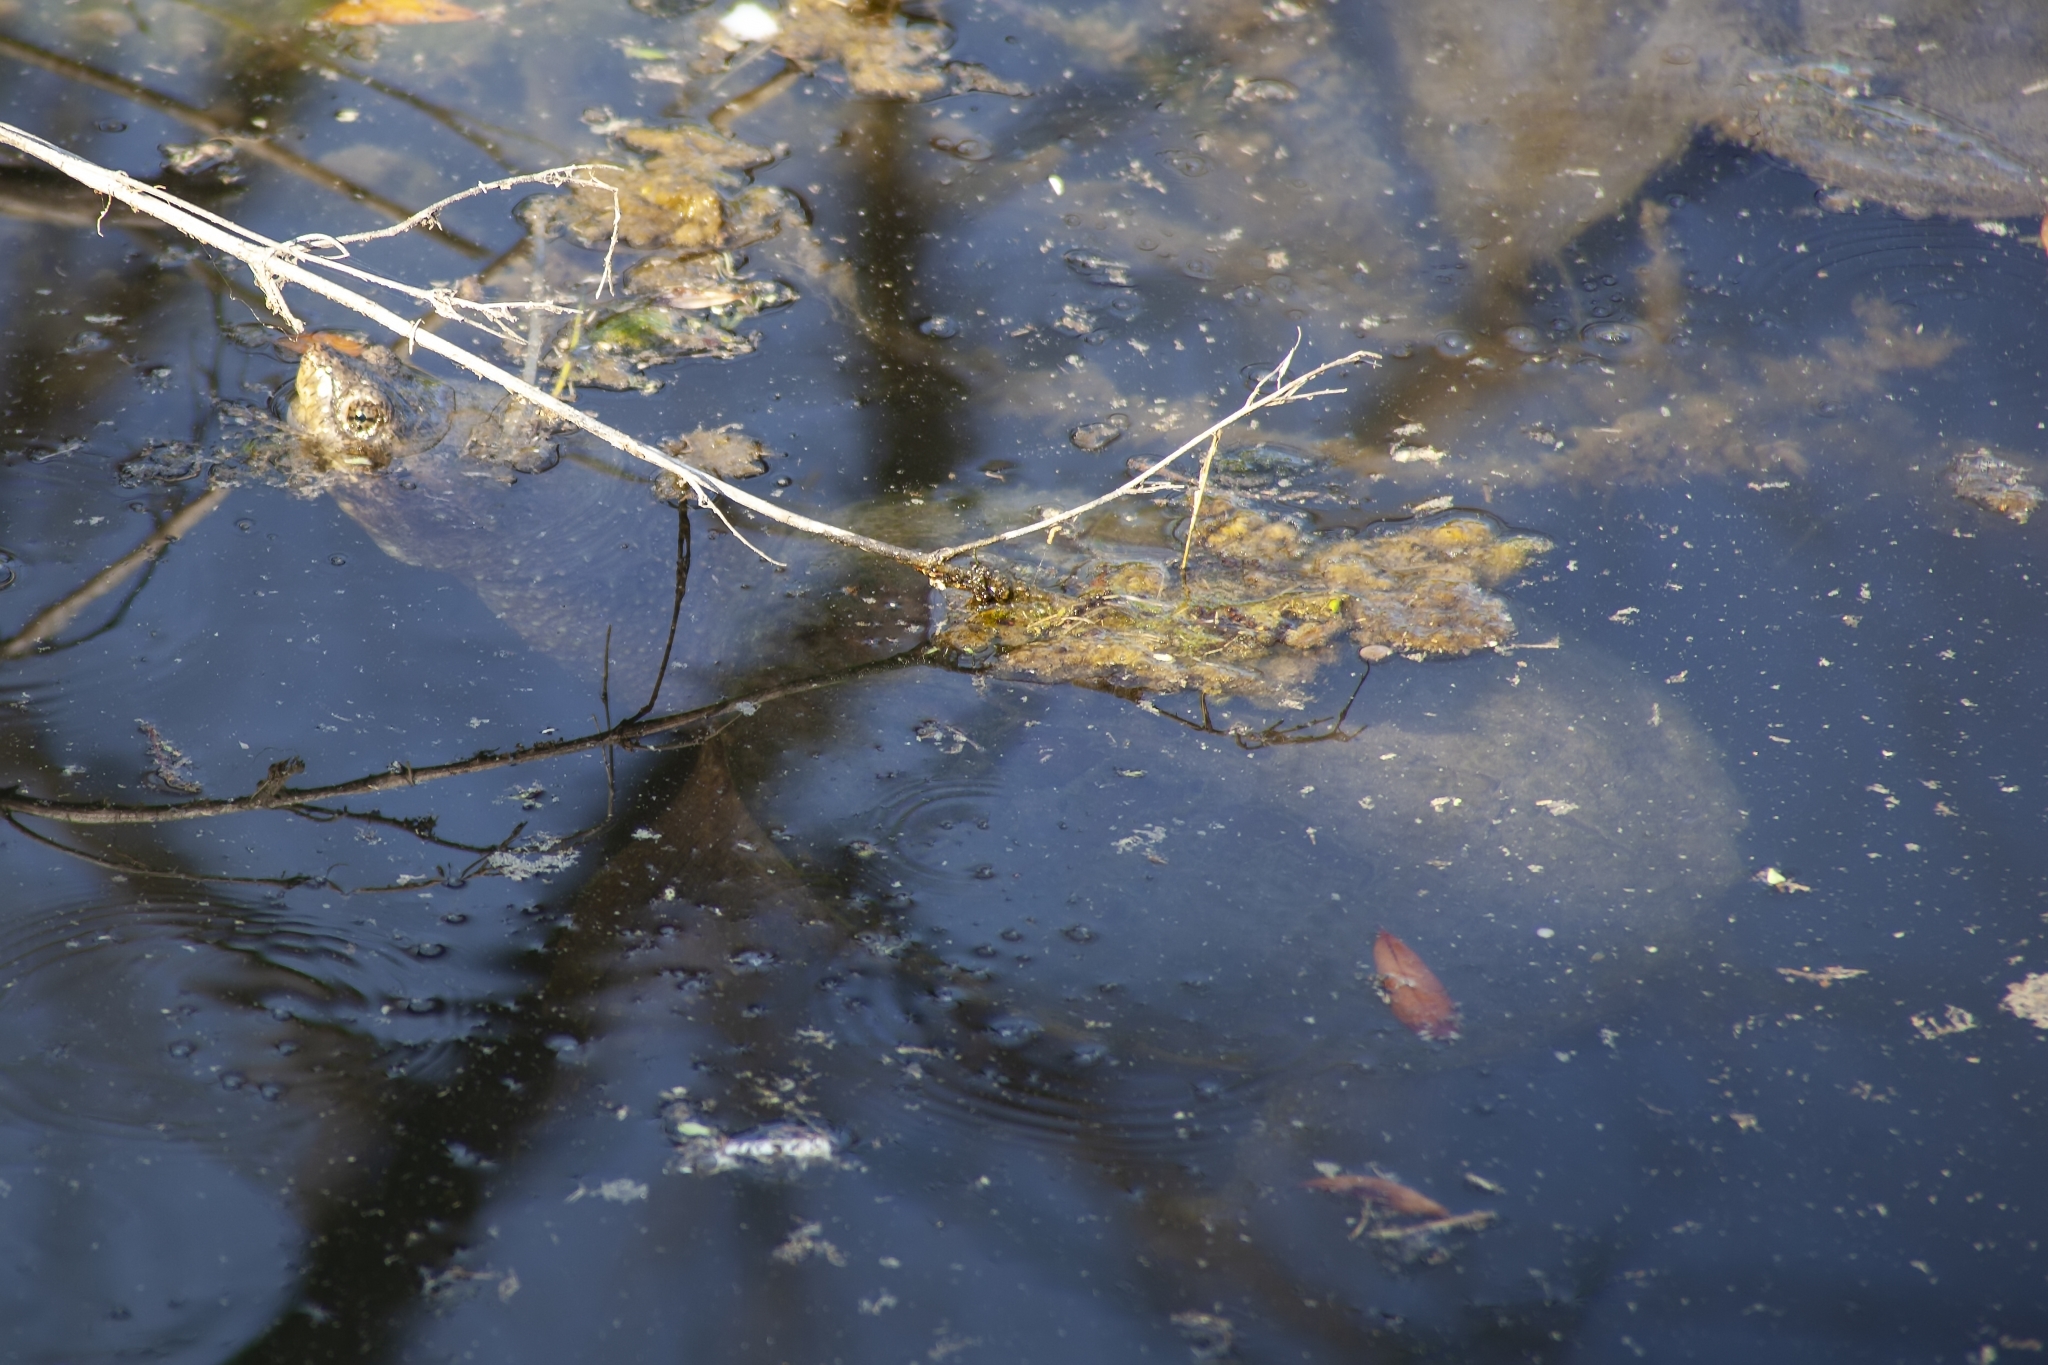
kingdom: Animalia
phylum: Chordata
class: Testudines
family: Chelydridae
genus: Chelydra
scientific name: Chelydra serpentina
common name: Common snapping turtle
